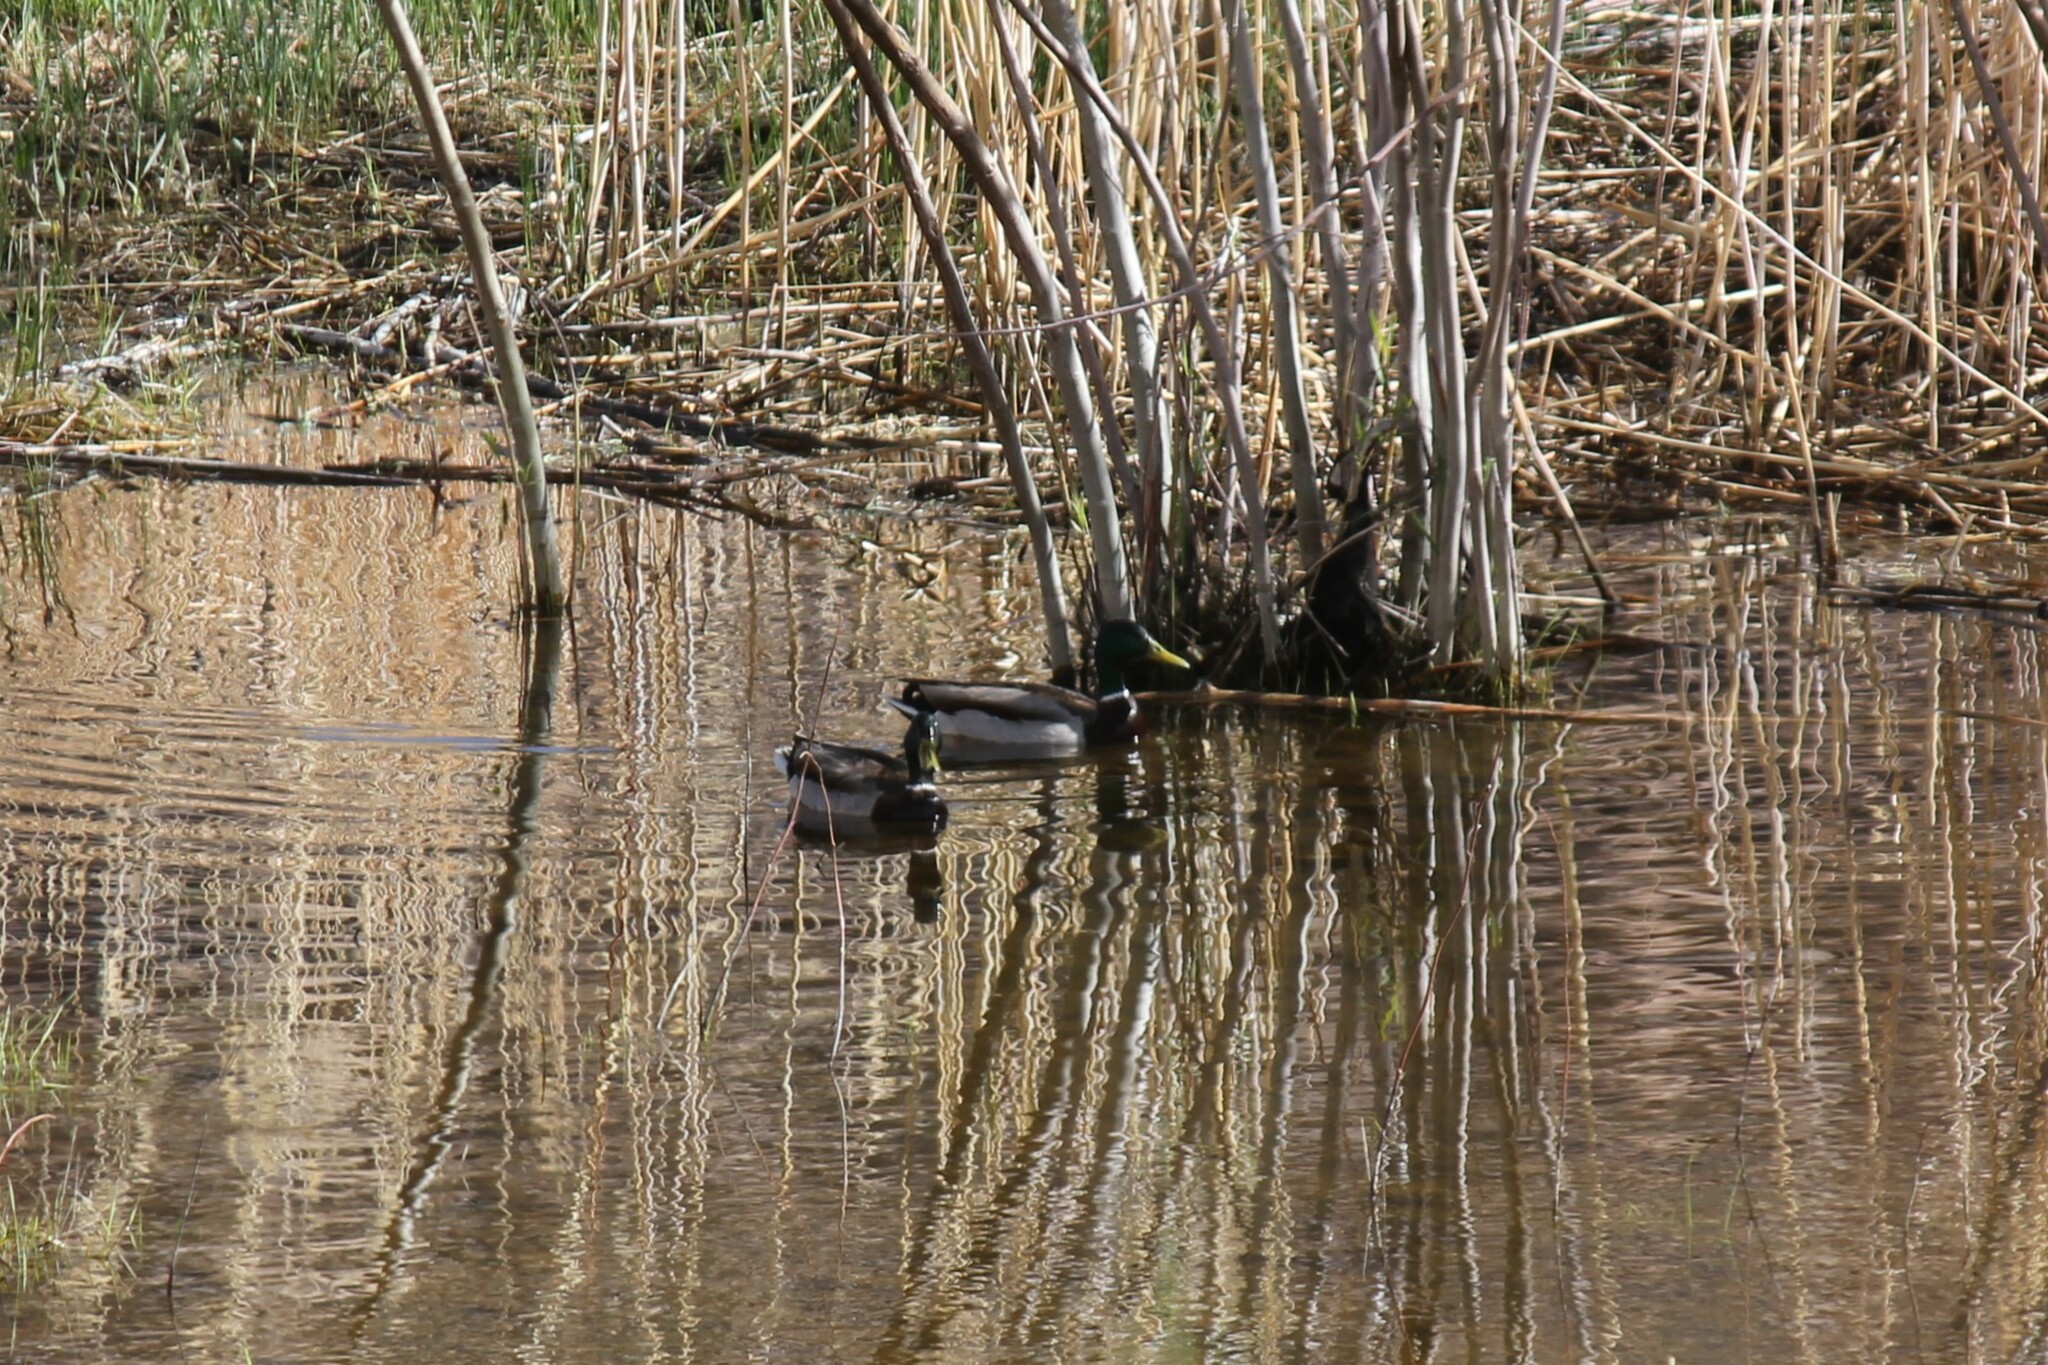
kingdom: Animalia
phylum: Chordata
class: Aves
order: Anseriformes
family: Anatidae
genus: Anas
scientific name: Anas platyrhynchos
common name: Mallard
